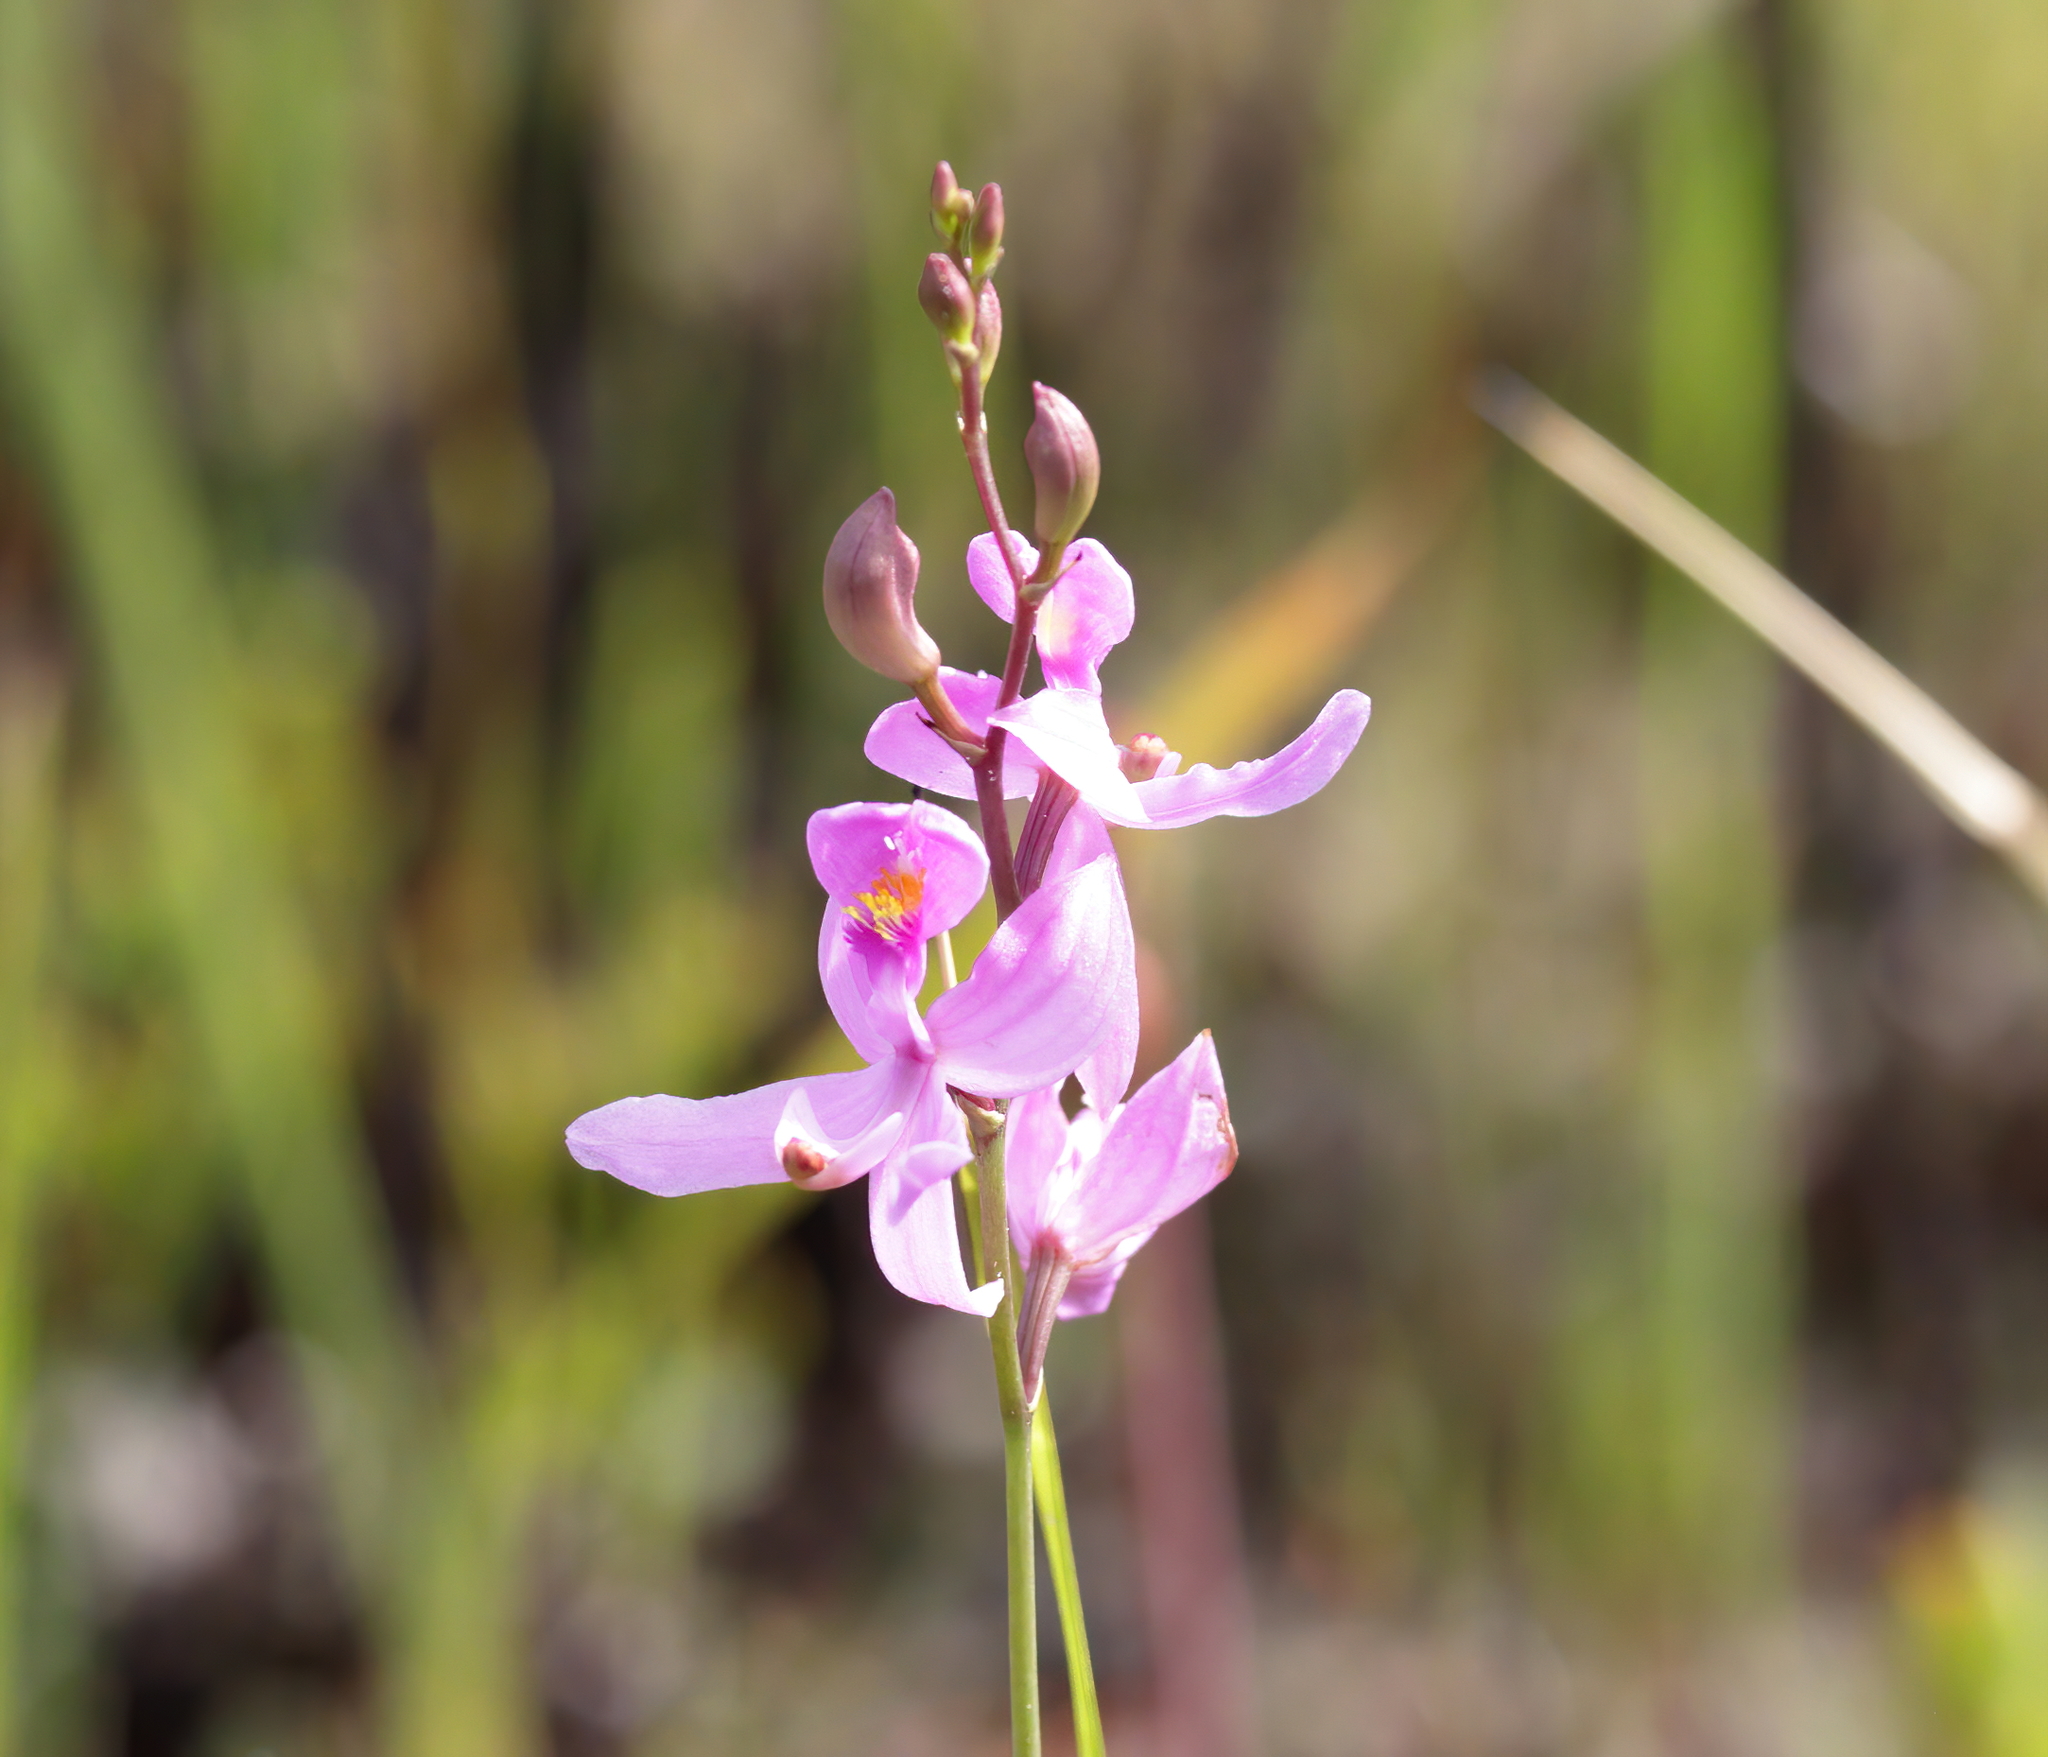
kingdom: Plantae
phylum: Tracheophyta
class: Liliopsida
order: Asparagales
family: Orchidaceae
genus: Calopogon
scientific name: Calopogon pallidus
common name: Pale grasspink
